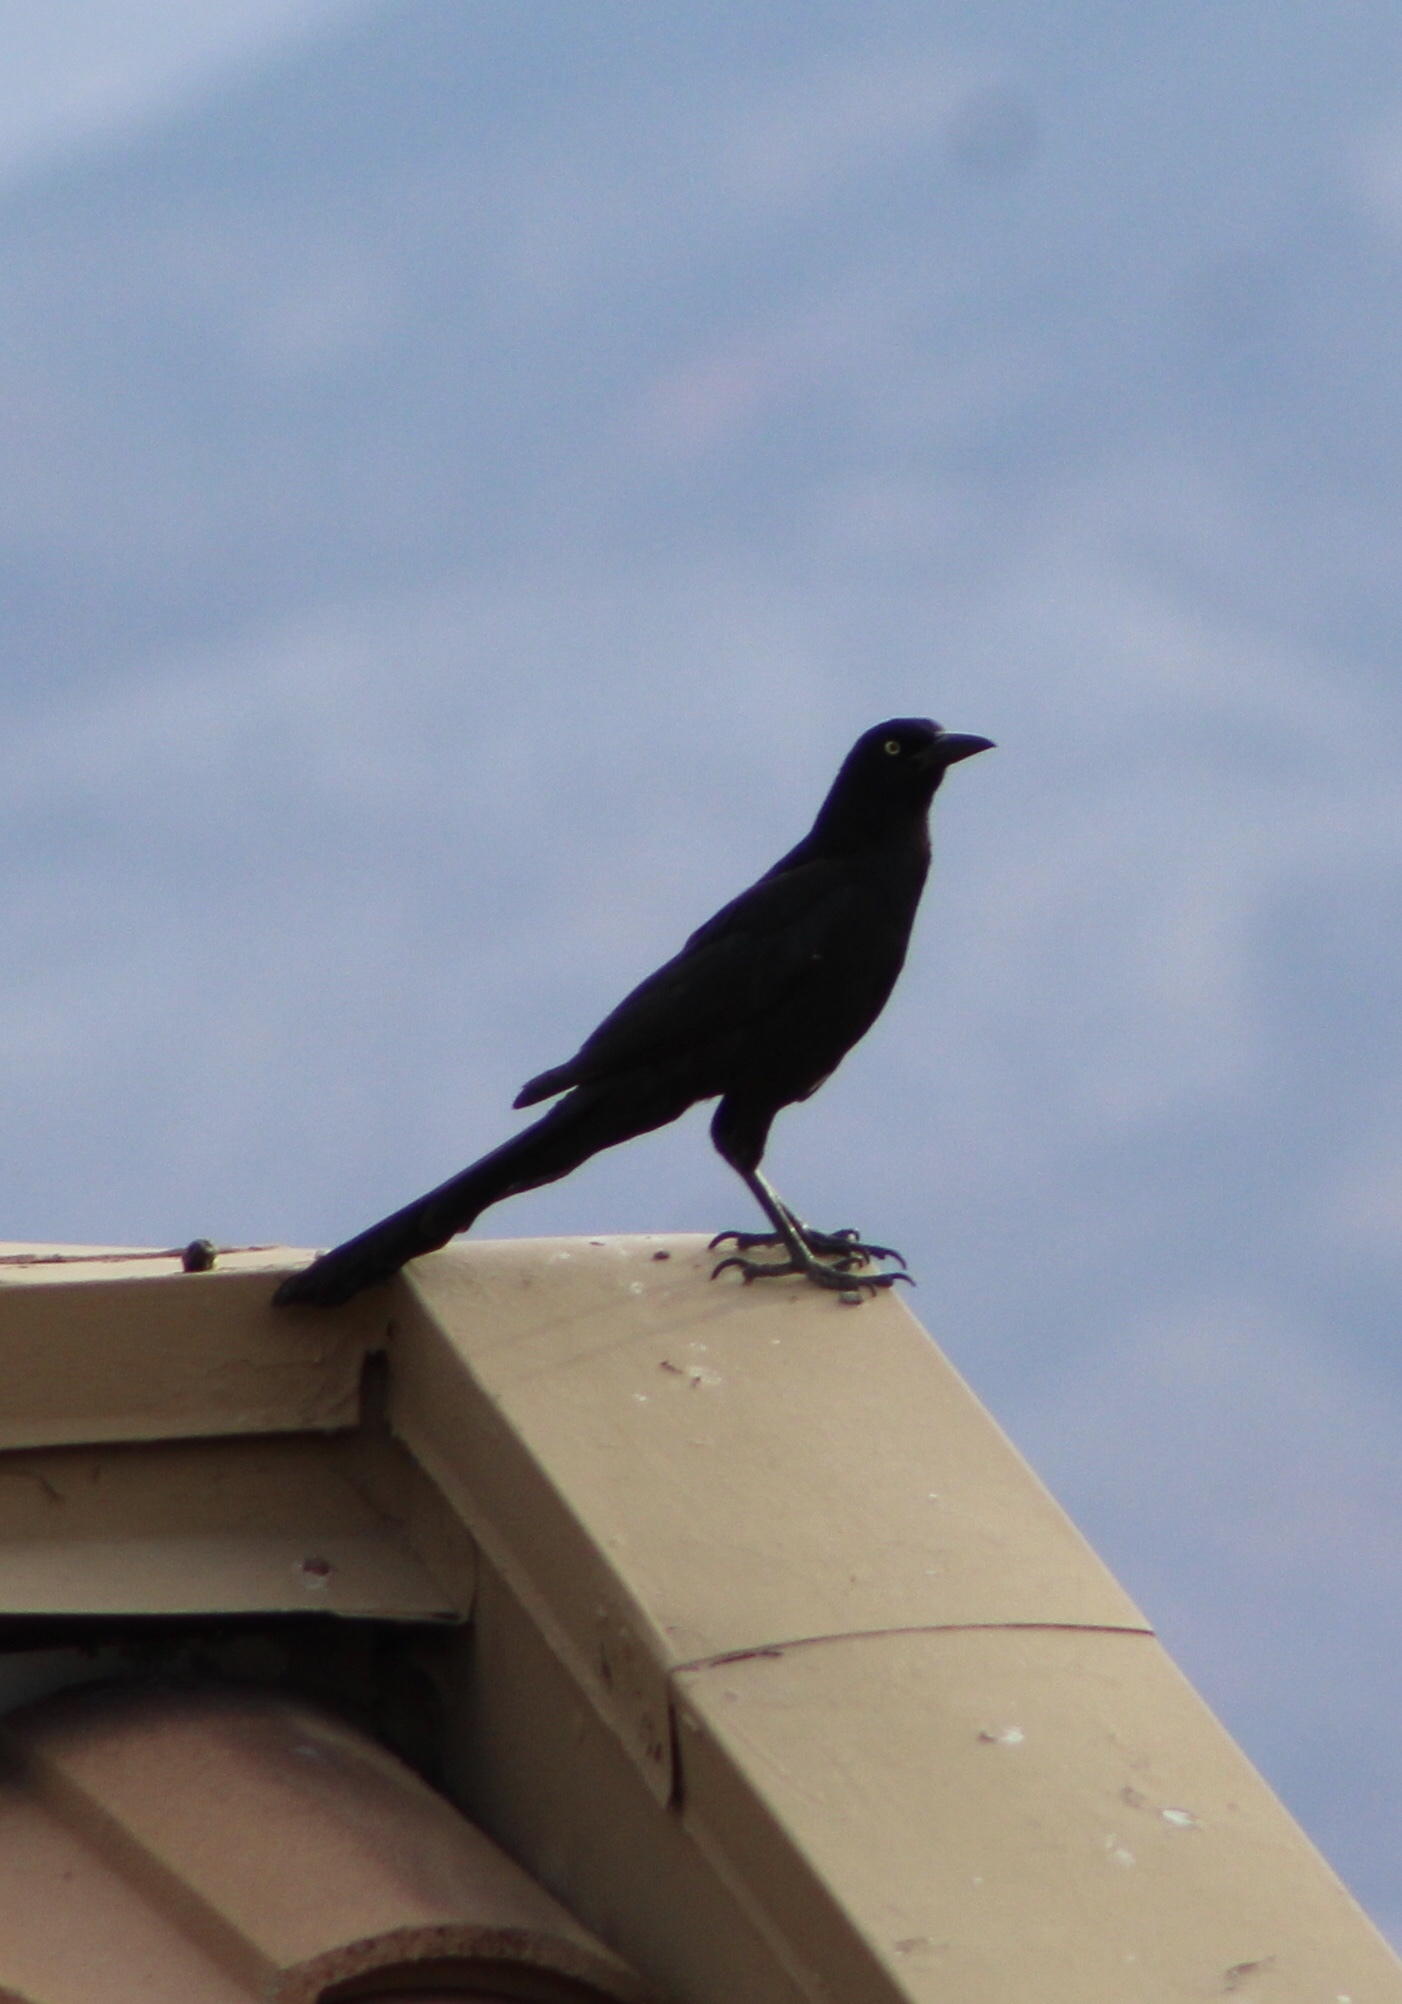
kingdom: Animalia
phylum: Chordata
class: Aves
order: Passeriformes
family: Icteridae
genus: Quiscalus
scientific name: Quiscalus mexicanus
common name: Great-tailed grackle
